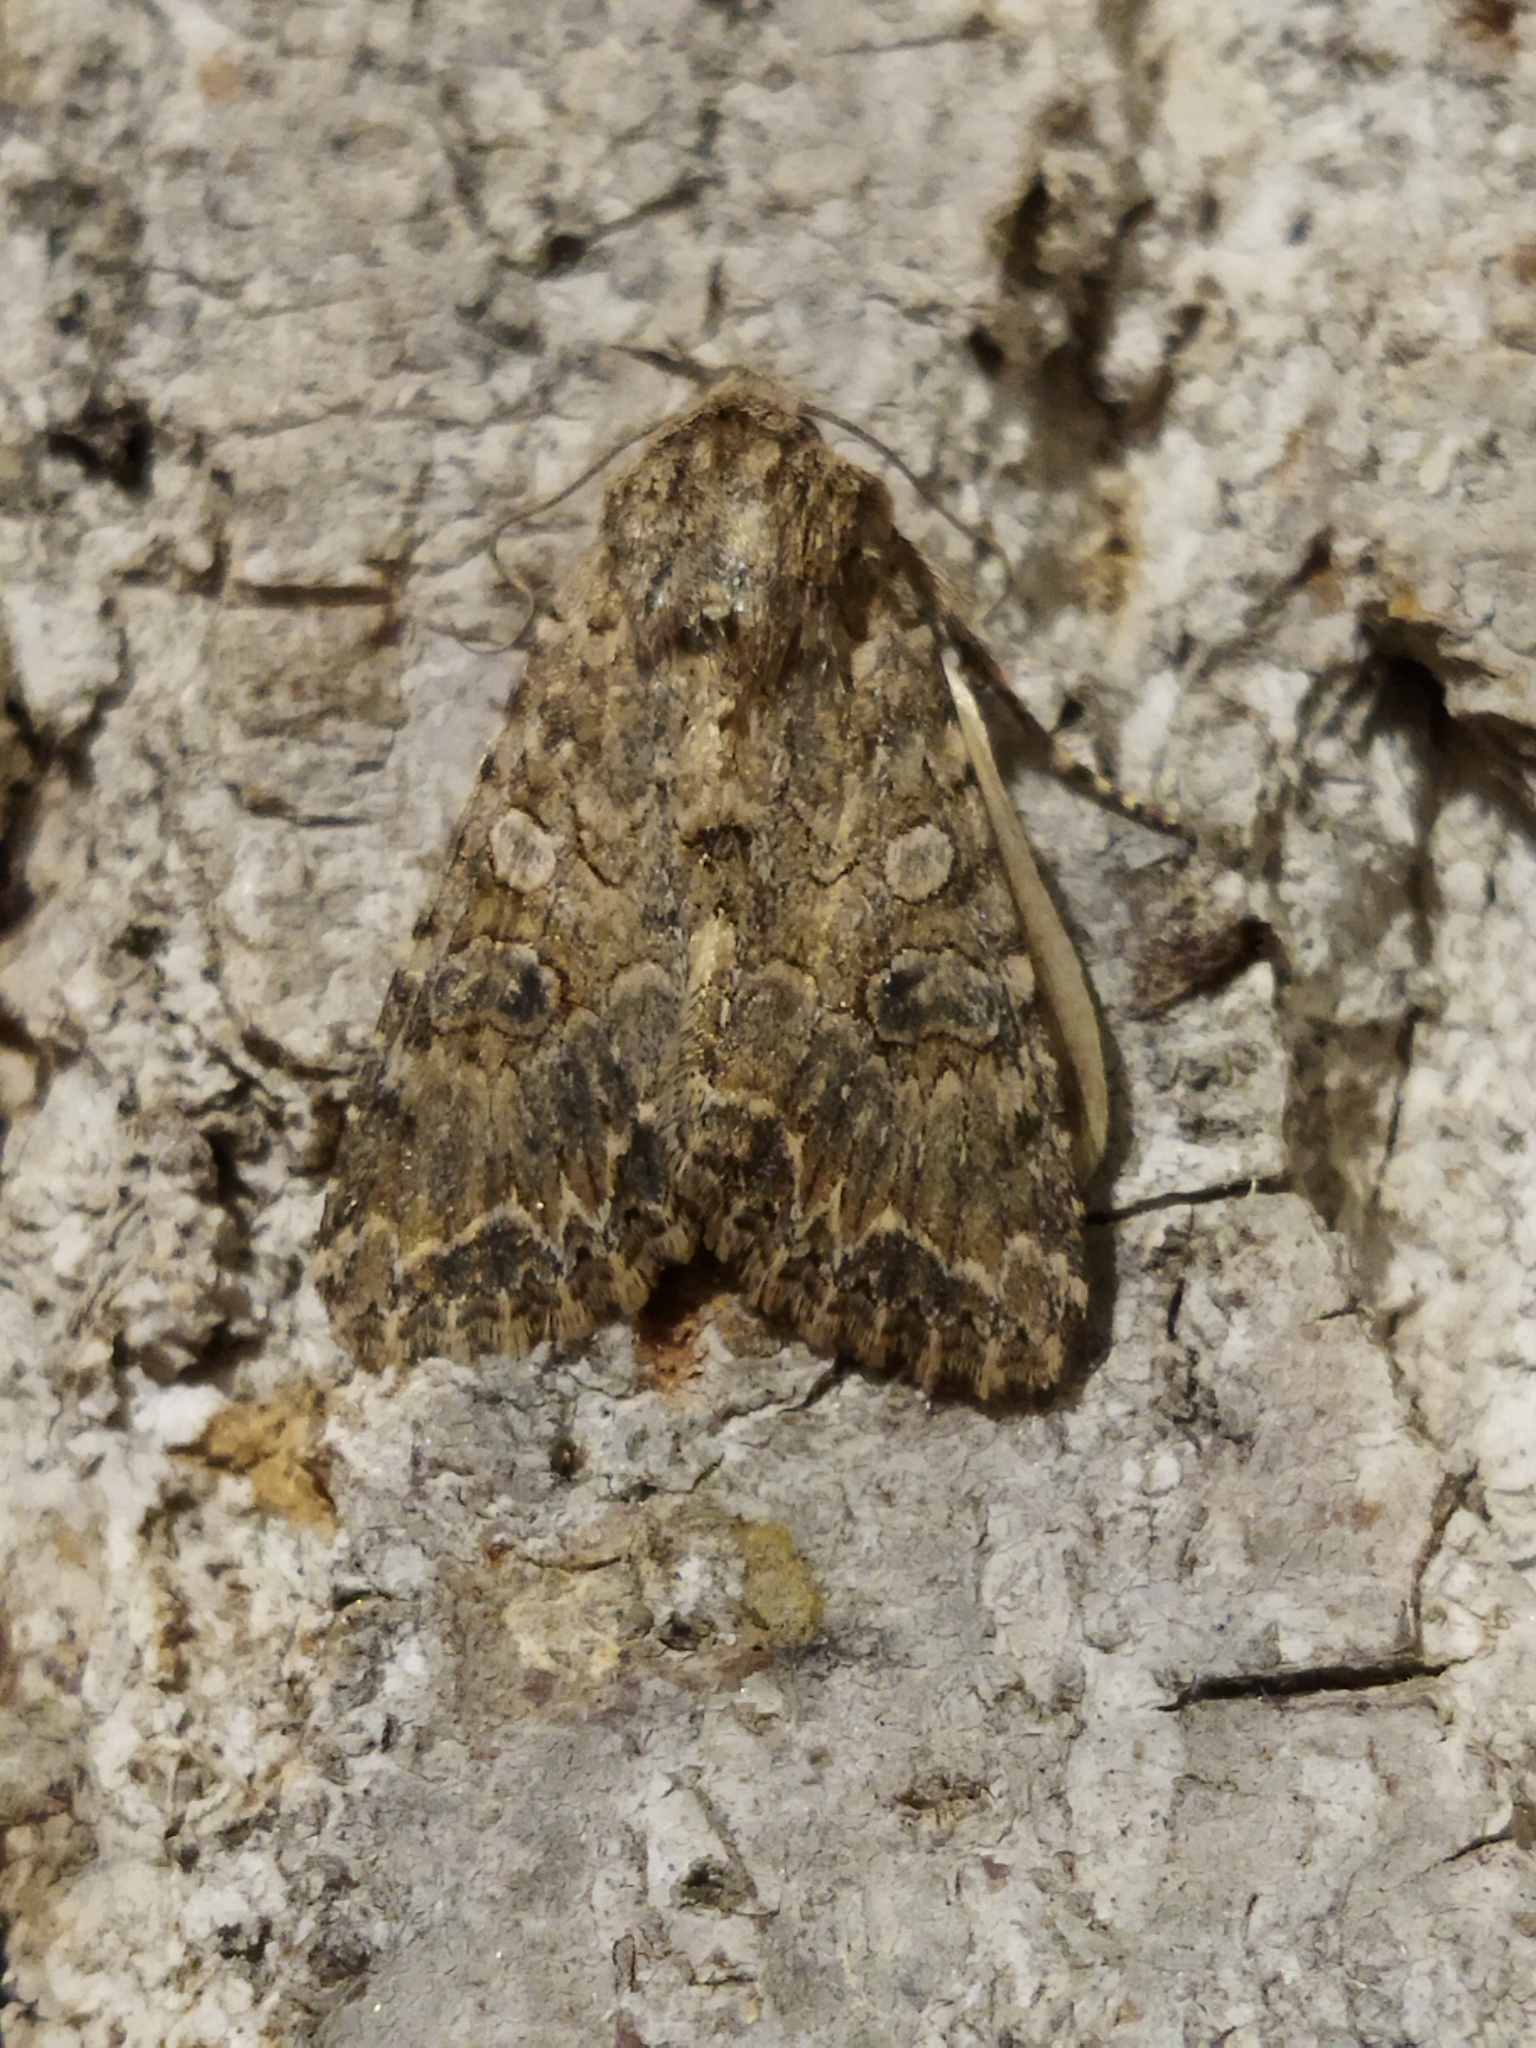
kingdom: Animalia
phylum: Arthropoda
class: Insecta
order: Lepidoptera
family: Noctuidae
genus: Anarta
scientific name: Anarta trifolii
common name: Clover cutworm moth
